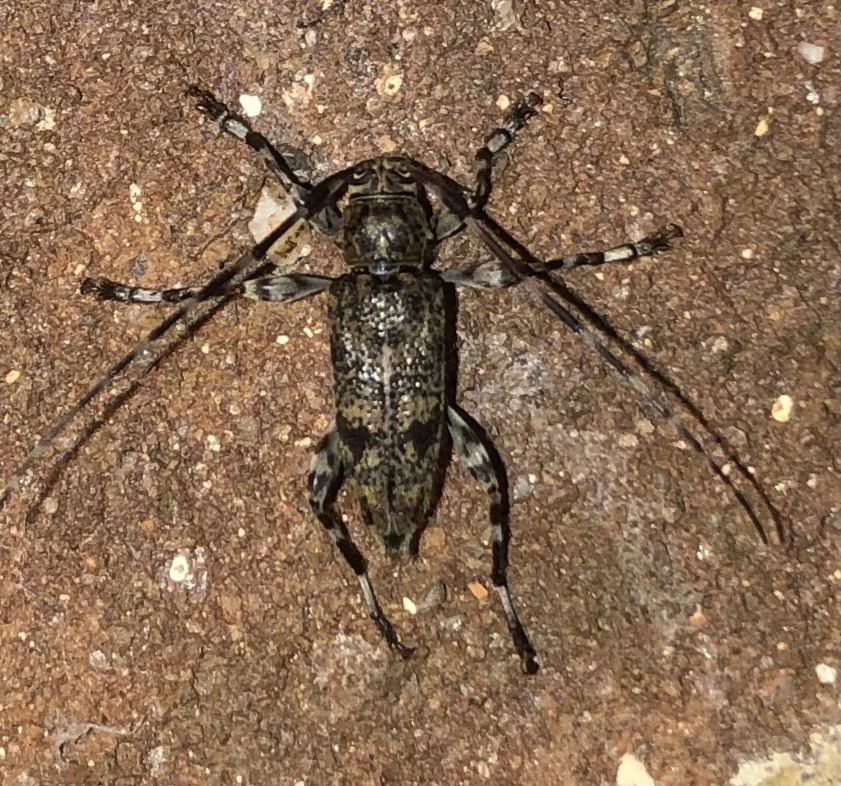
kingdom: Animalia
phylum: Arthropoda
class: Insecta
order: Coleoptera
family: Cerambycidae
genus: Graphisurus
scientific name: Graphisurus fasciatus
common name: Banded graphisurus
